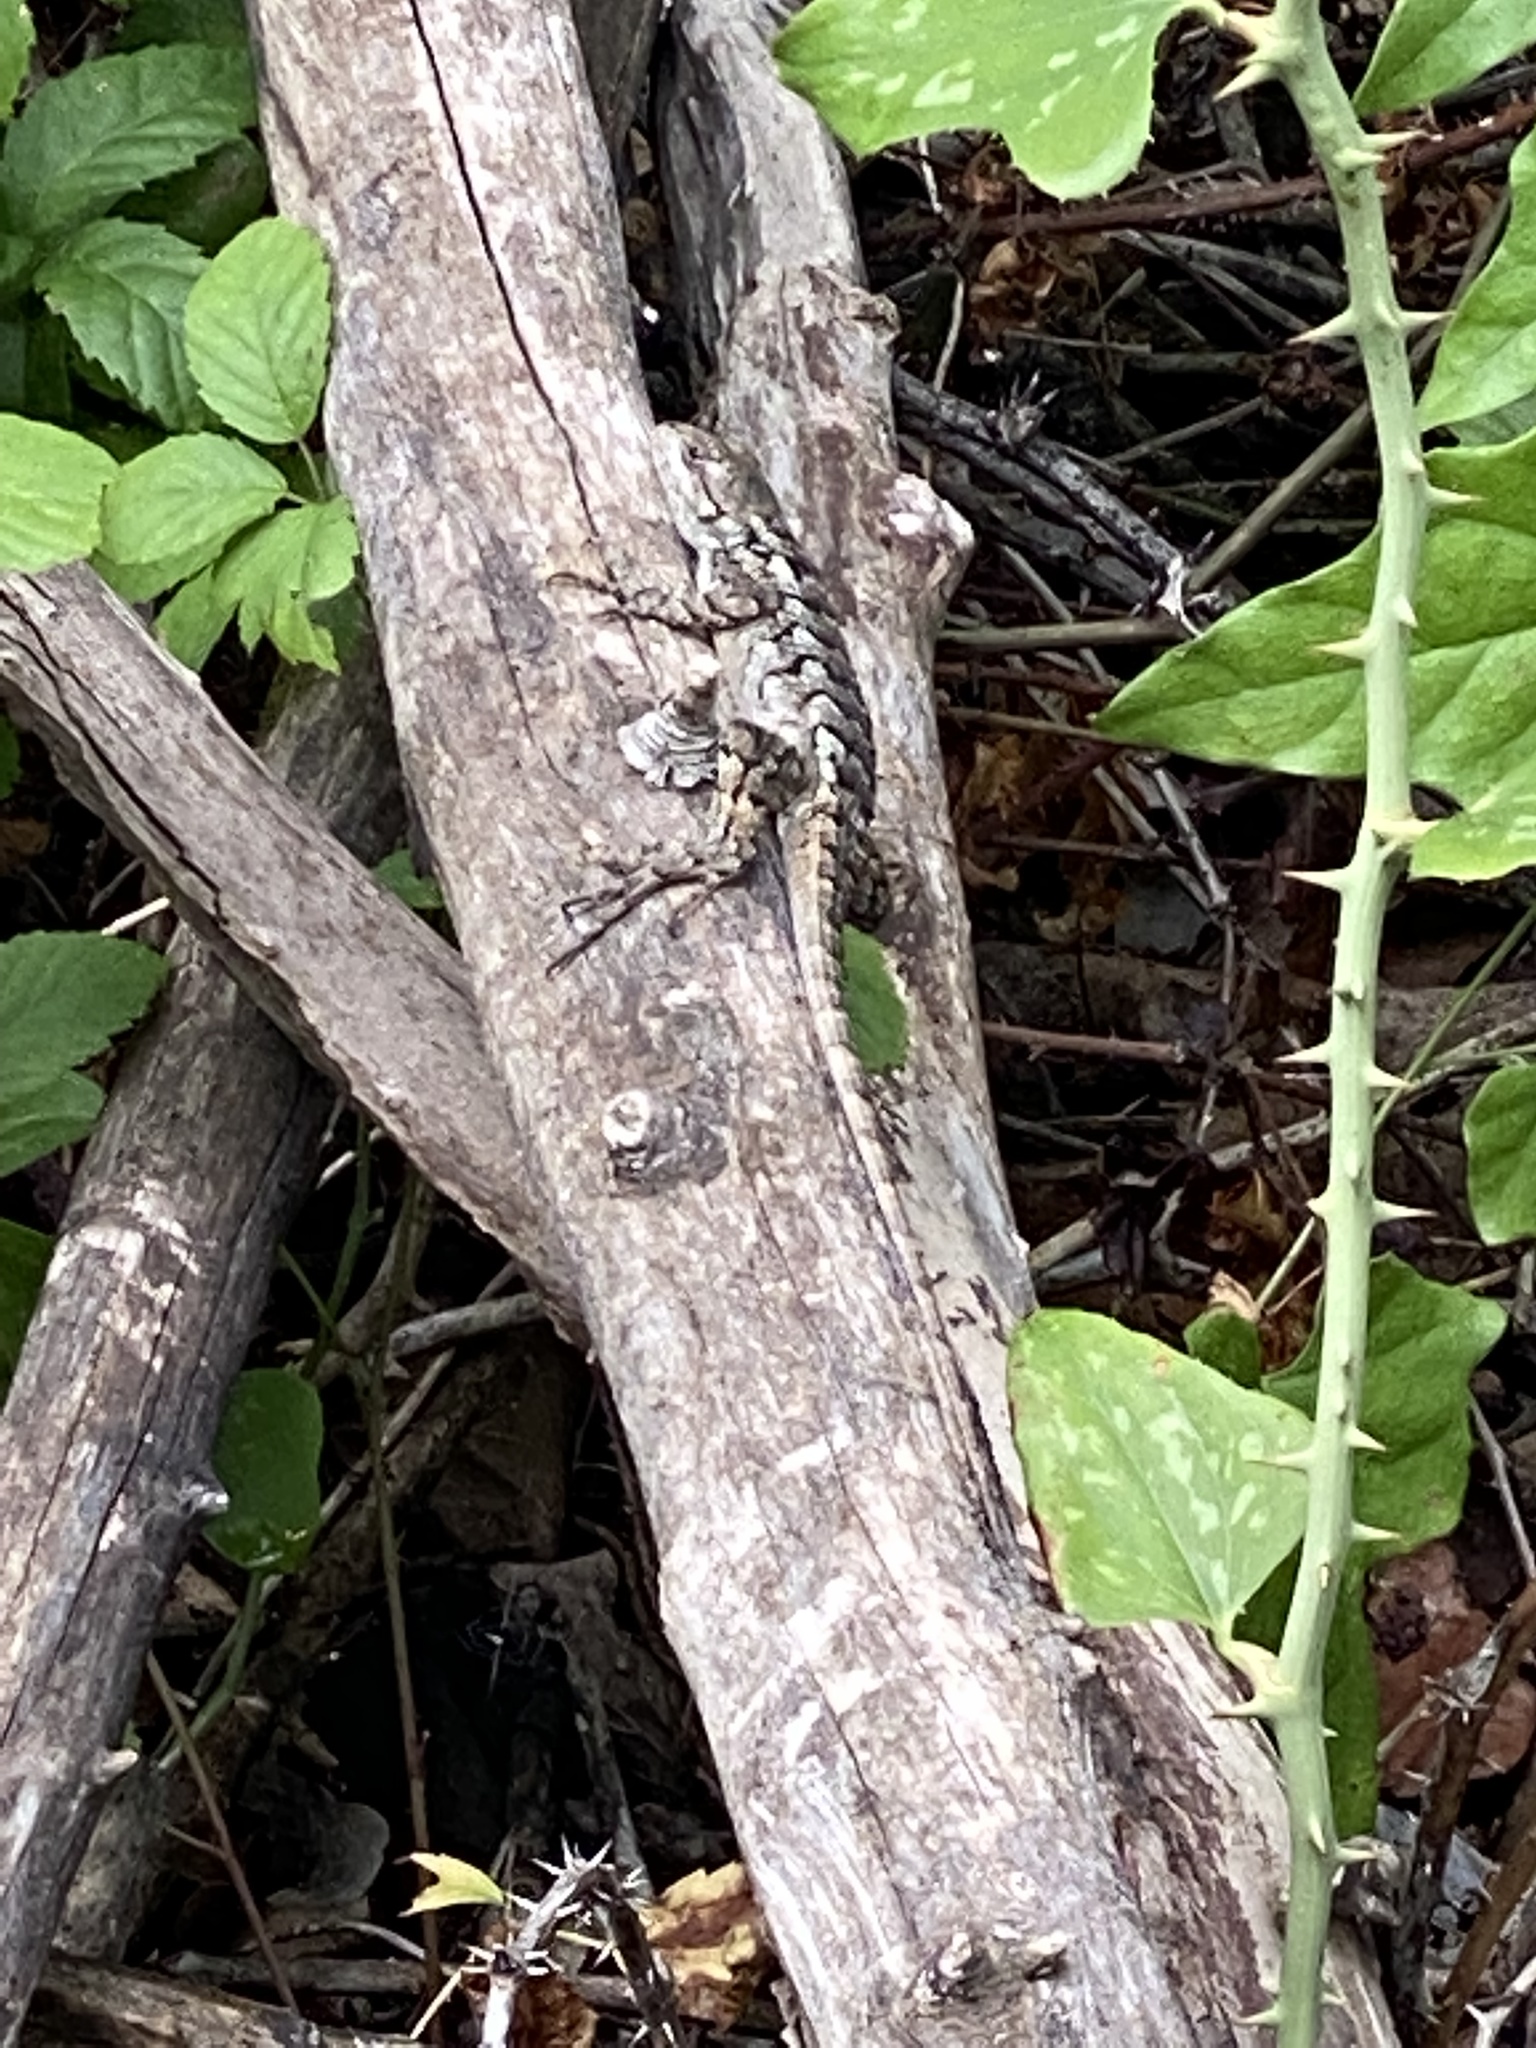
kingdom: Animalia
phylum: Chordata
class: Squamata
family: Phrynosomatidae
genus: Sceloporus
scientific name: Sceloporus olivaceus
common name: Texas spiny lizard
